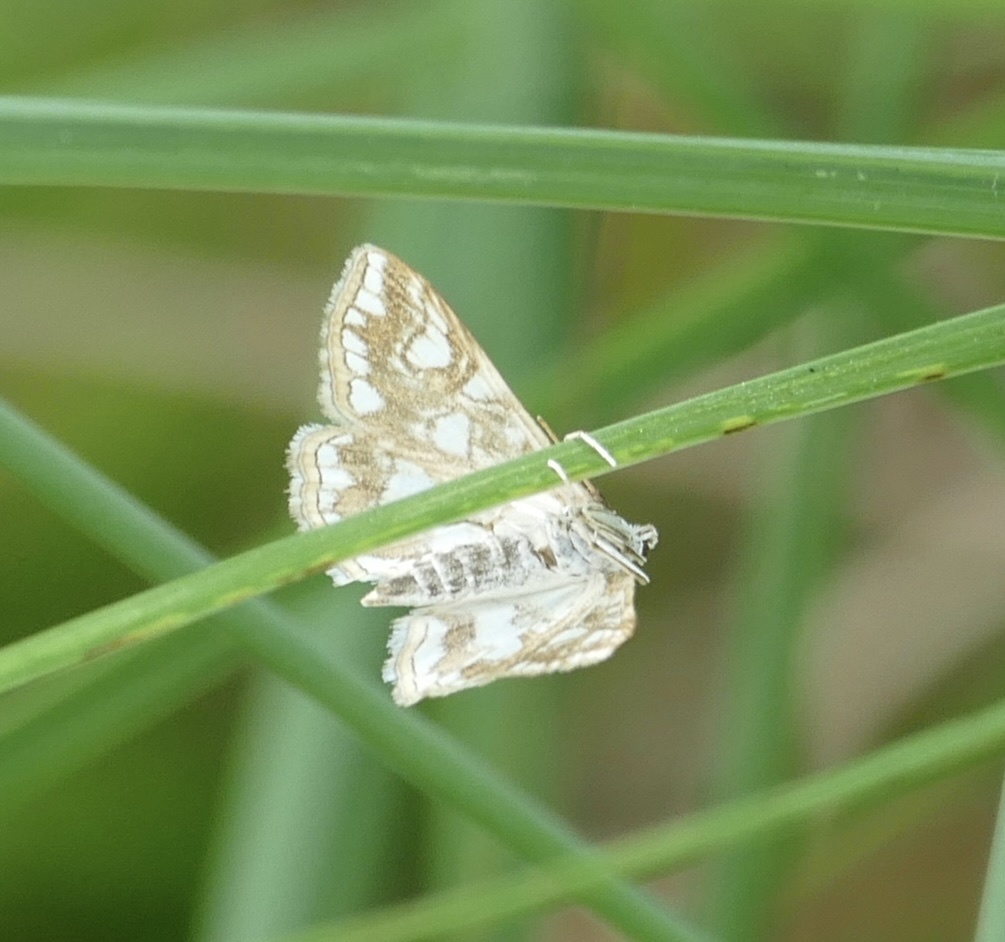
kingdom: Animalia
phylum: Arthropoda
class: Insecta
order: Lepidoptera
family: Crambidae
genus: Elophila
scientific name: Elophila nymphaeata
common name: Brown china-mark
